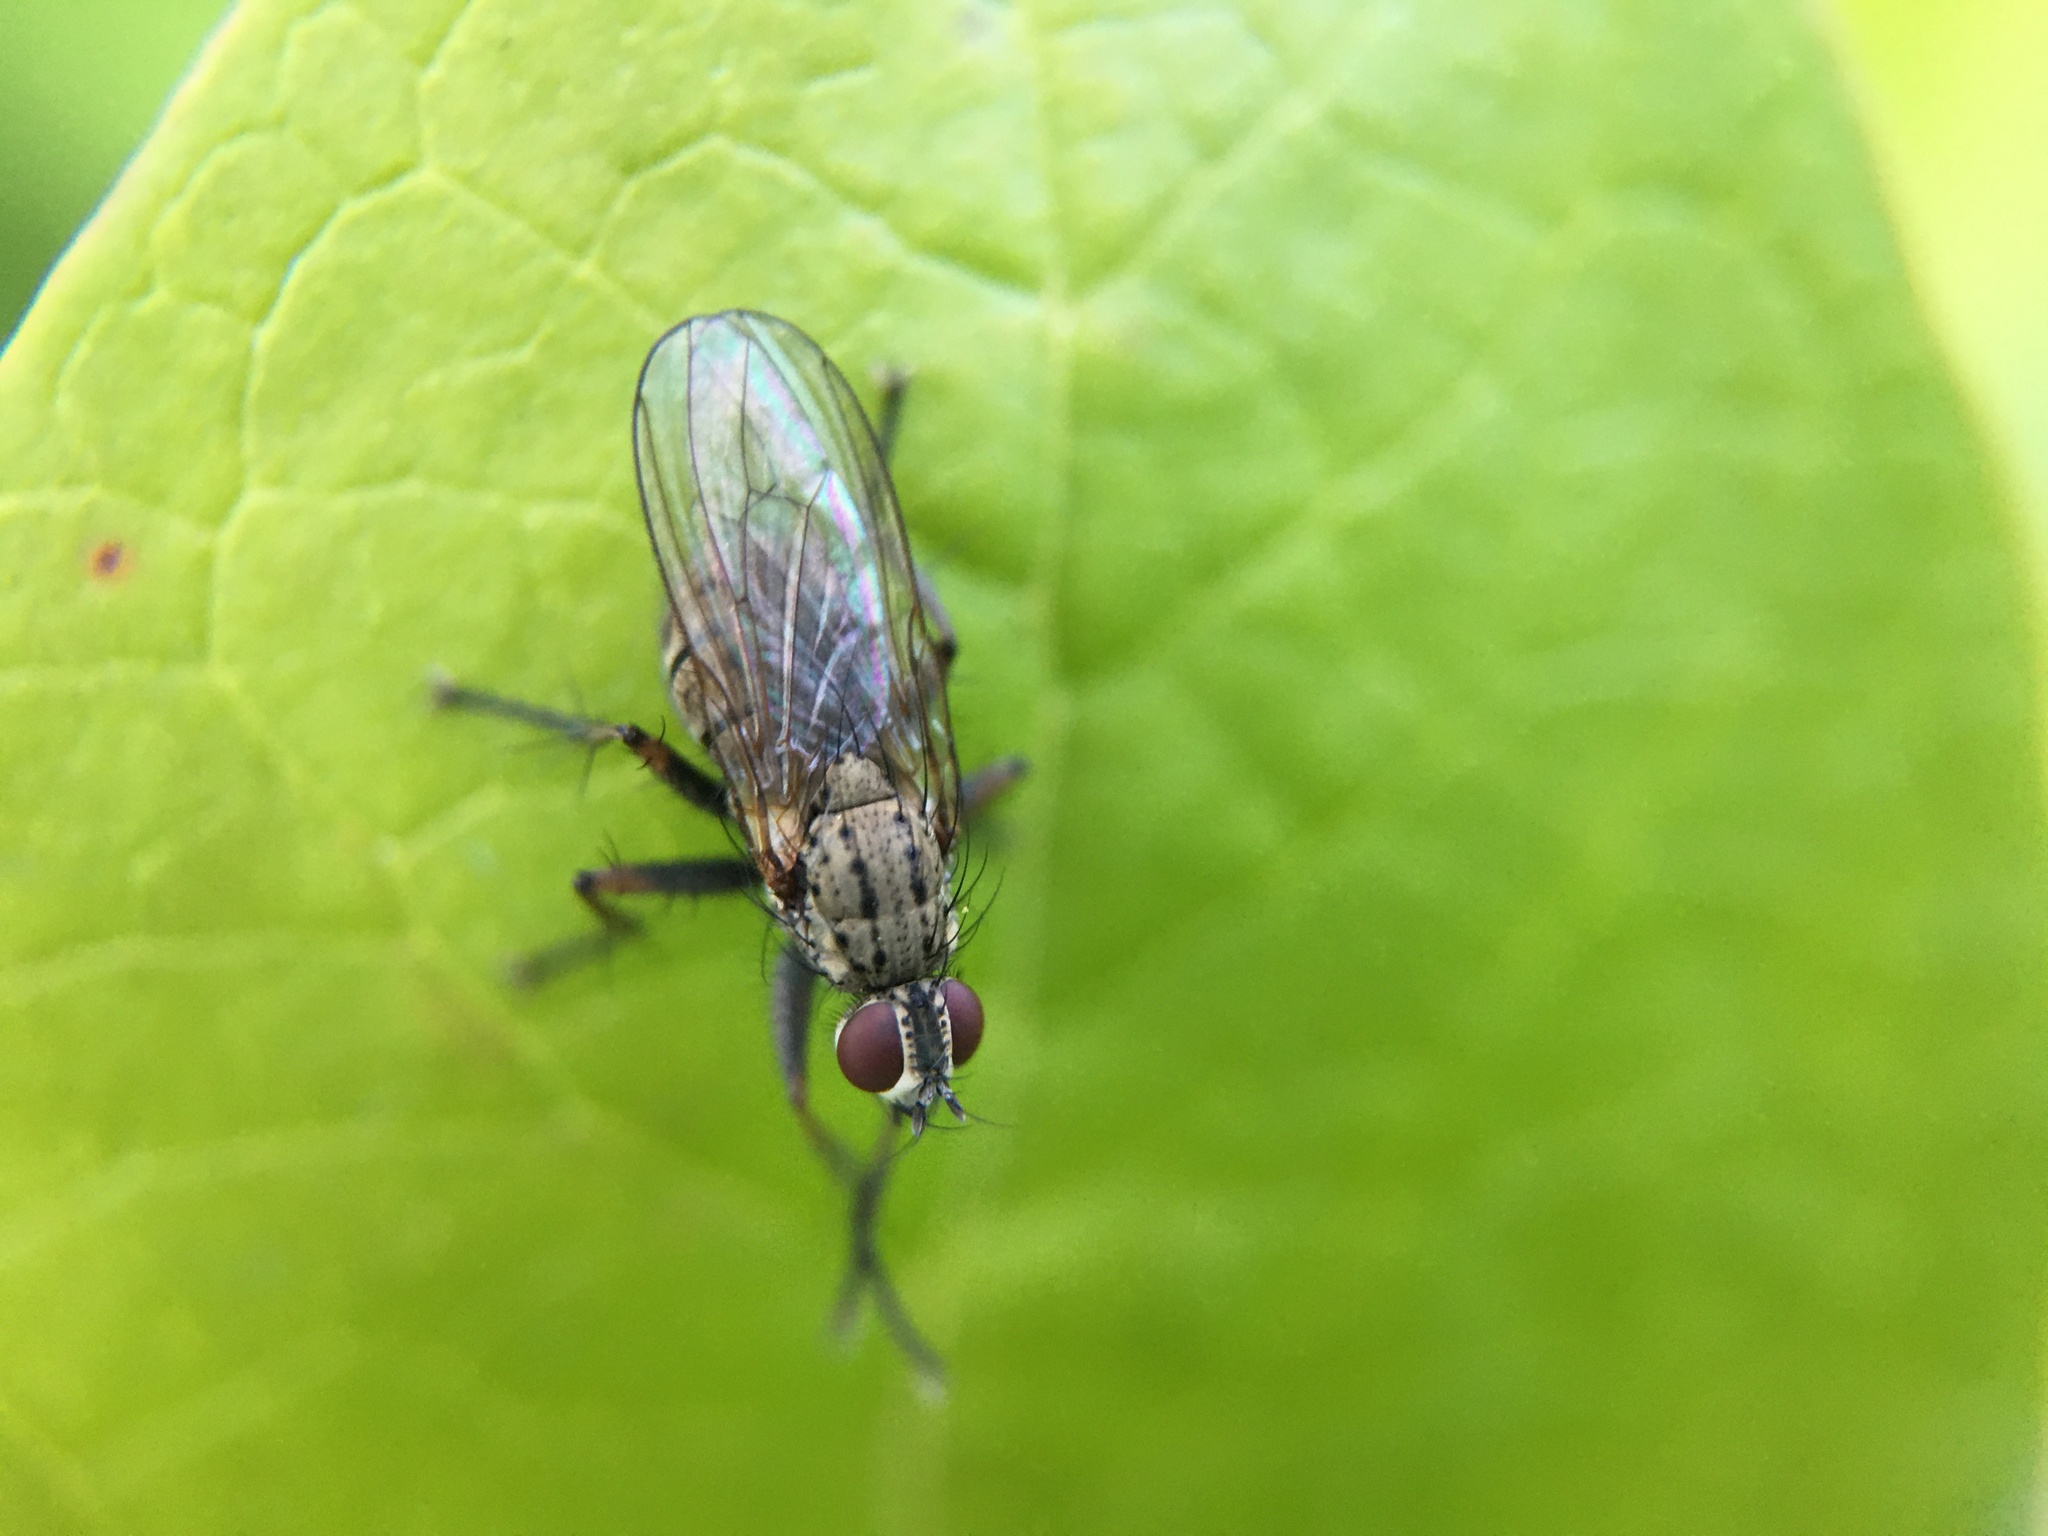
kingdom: Animalia
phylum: Arthropoda
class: Insecta
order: Diptera
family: Muscidae
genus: Coenosia
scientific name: Coenosia tigrina
